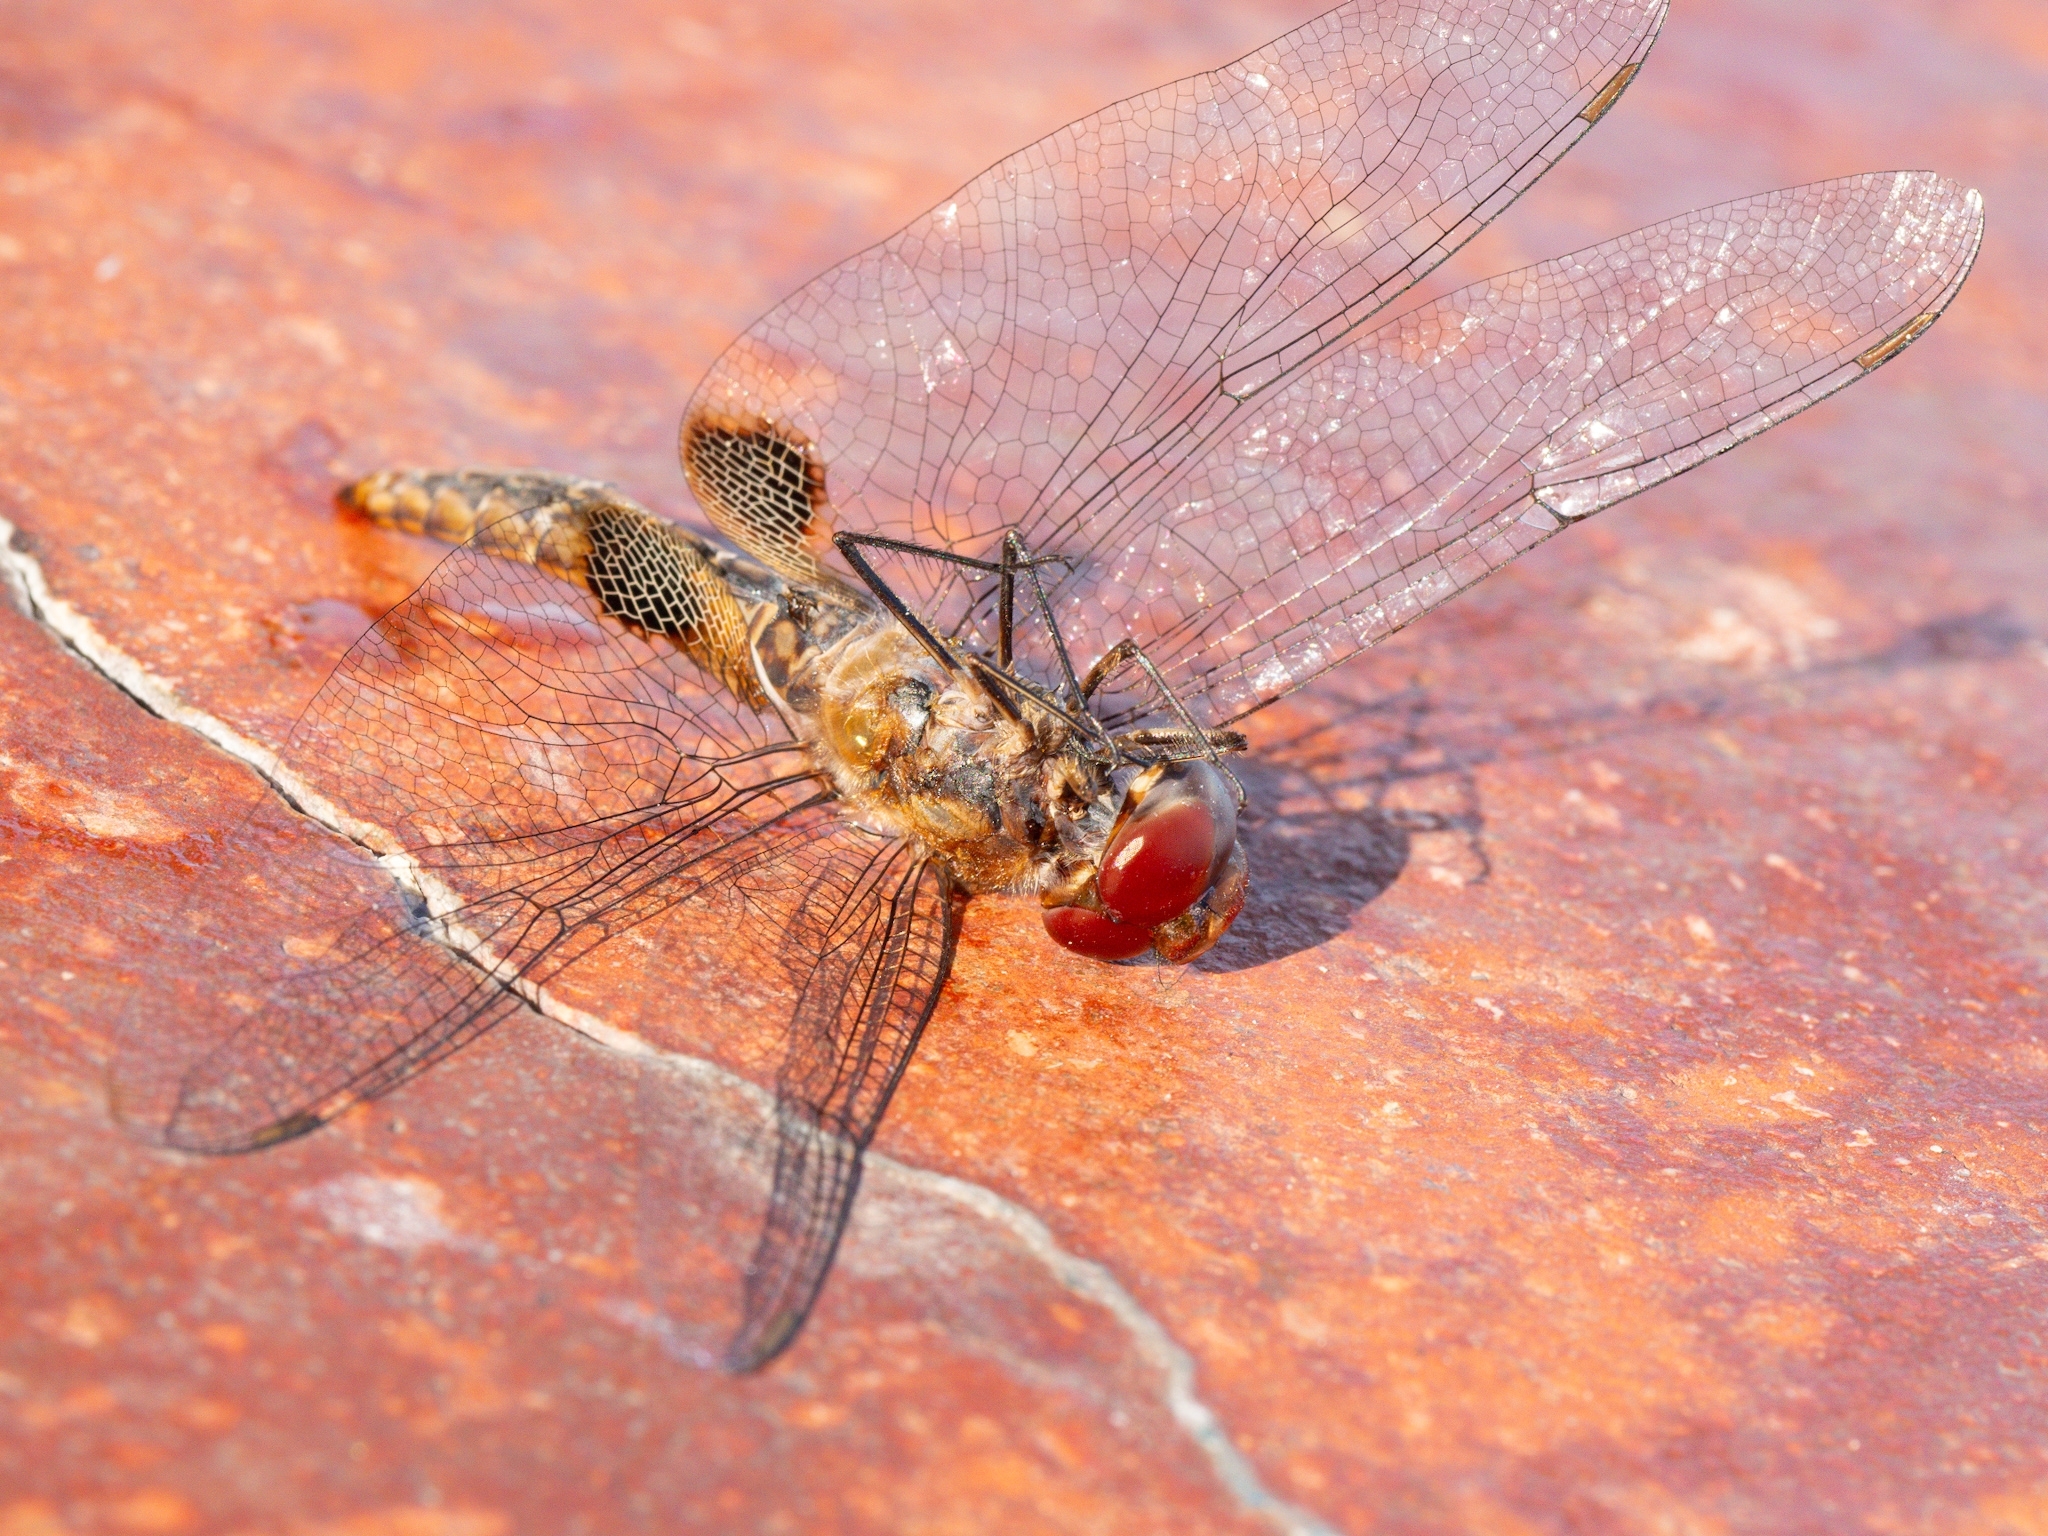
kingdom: Animalia
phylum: Arthropoda
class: Insecta
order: Odonata
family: Libellulidae
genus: Pantala
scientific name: Pantala hymenaea
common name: Spot-winged glider
